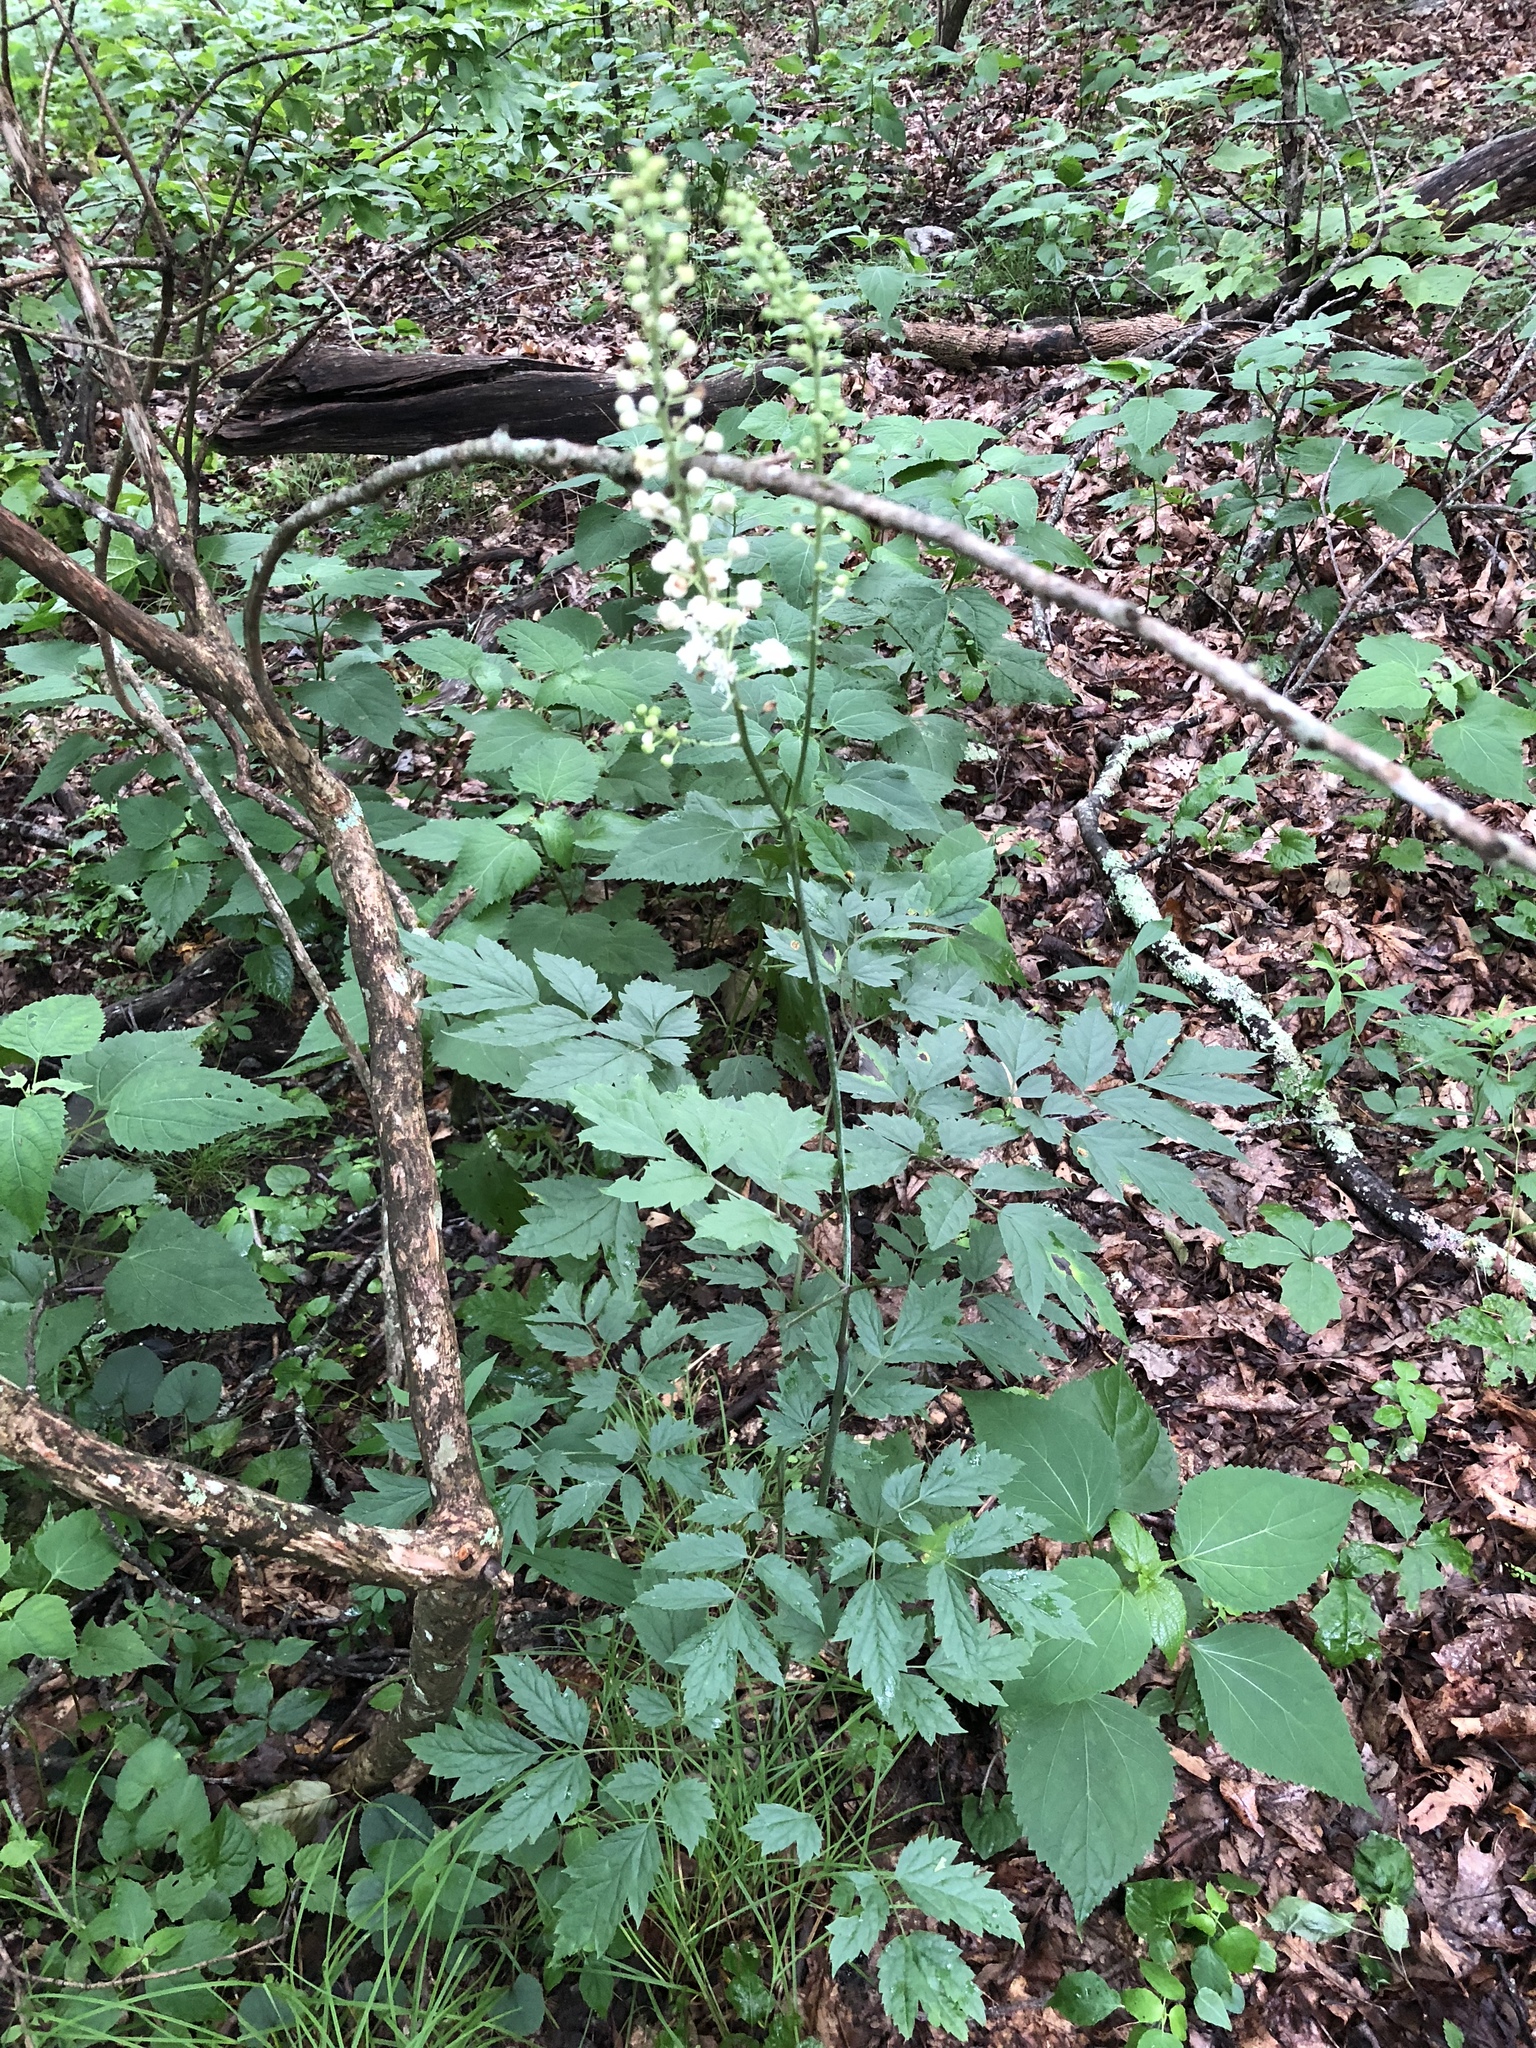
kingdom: Plantae
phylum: Tracheophyta
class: Magnoliopsida
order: Ranunculales
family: Ranunculaceae
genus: Actaea
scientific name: Actaea racemosa
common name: Black cohosh
